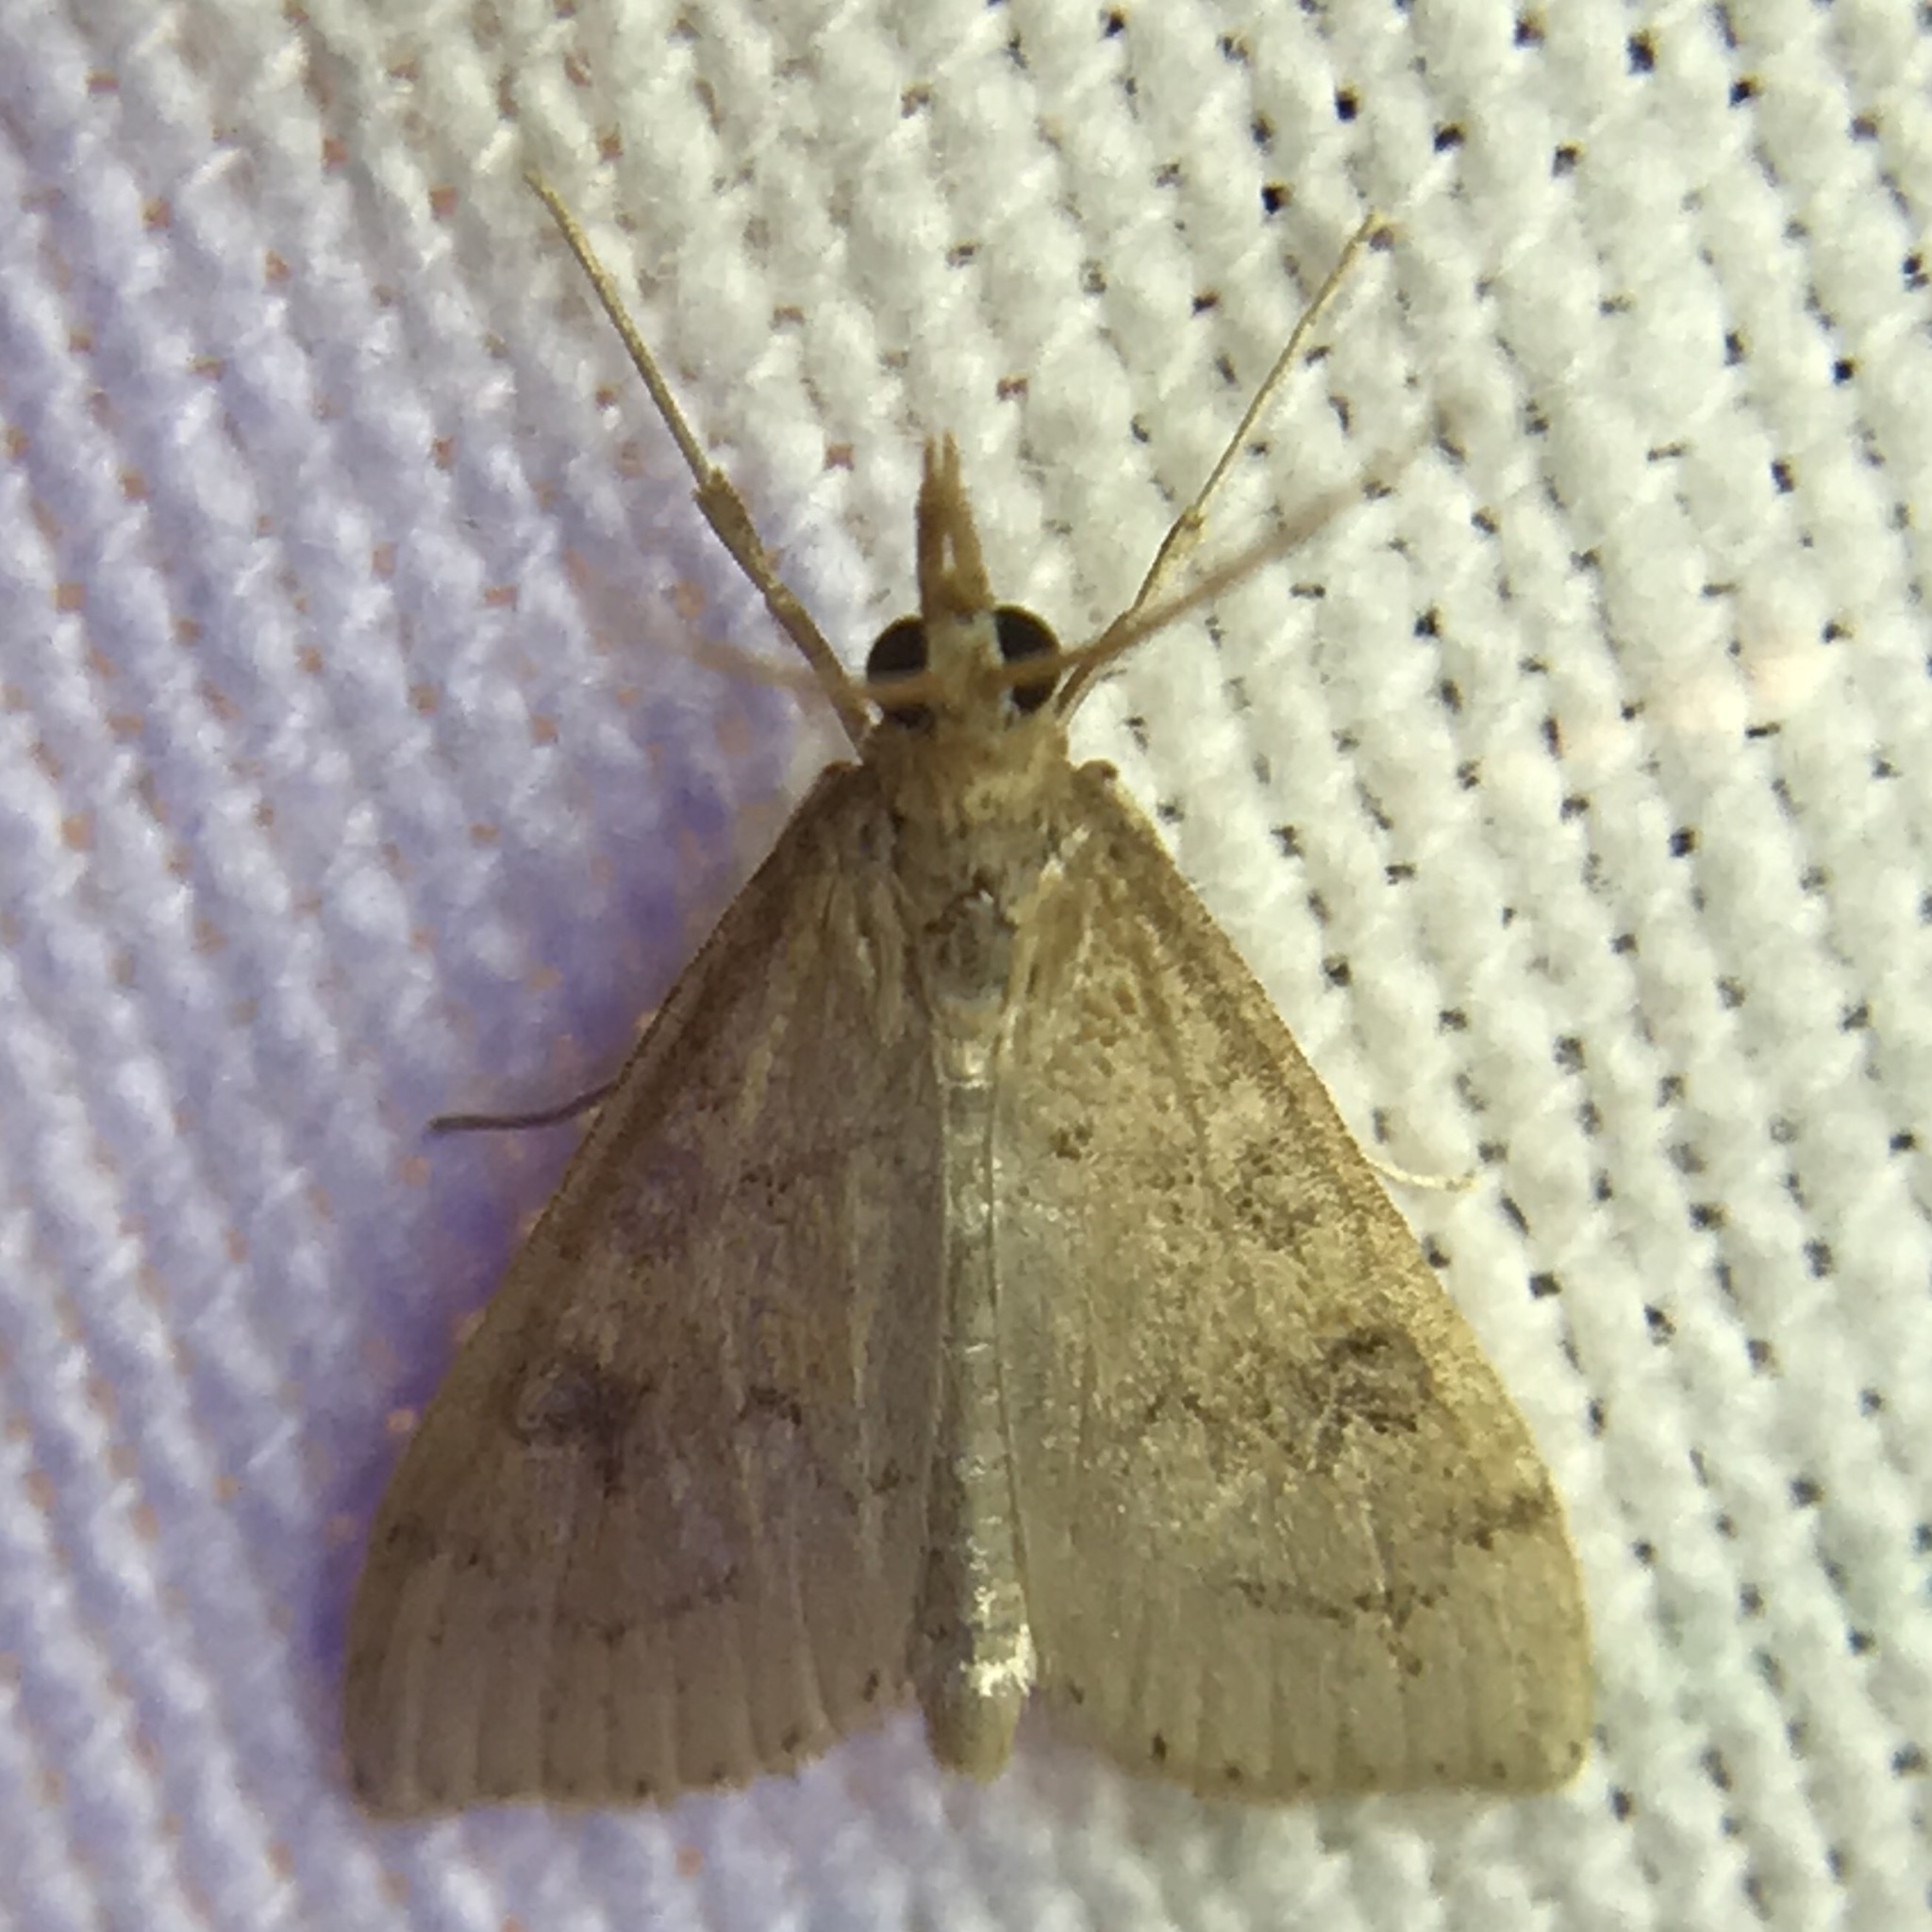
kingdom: Animalia
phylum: Arthropoda
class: Insecta
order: Lepidoptera
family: Crambidae
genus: Udea
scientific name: Udea rubigalis
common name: Celery leaftier moth
